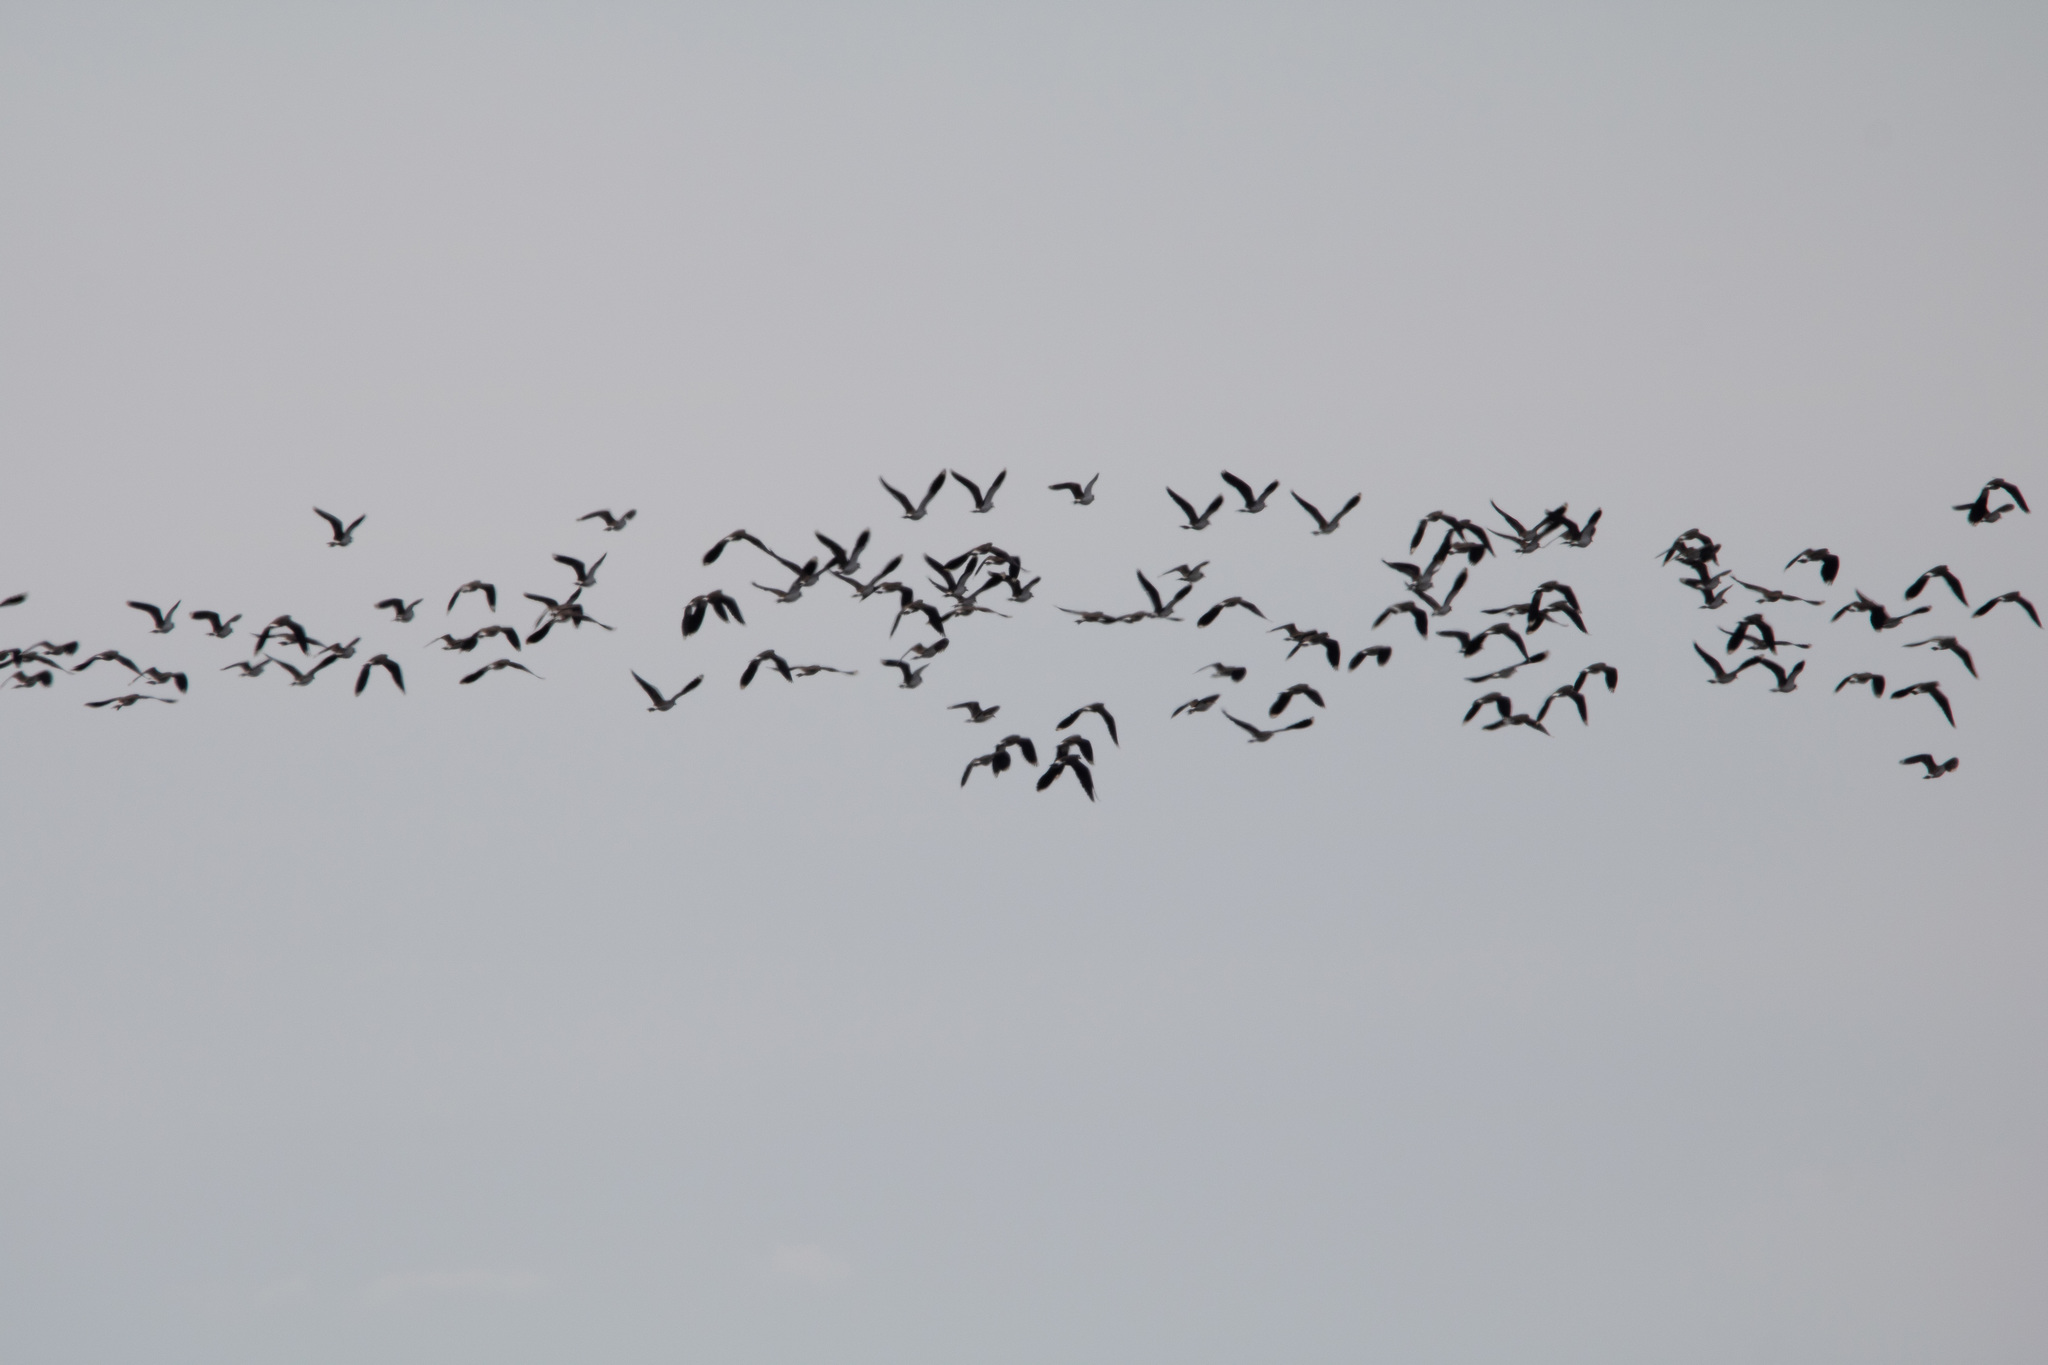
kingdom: Animalia
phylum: Chordata
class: Aves
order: Charadriiformes
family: Charadriidae
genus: Vanellus
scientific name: Vanellus vanellus
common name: Northern lapwing
